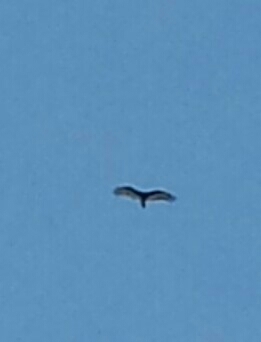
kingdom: Animalia
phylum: Chordata
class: Aves
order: Accipitriformes
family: Cathartidae
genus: Cathartes
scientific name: Cathartes aura
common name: Turkey vulture
